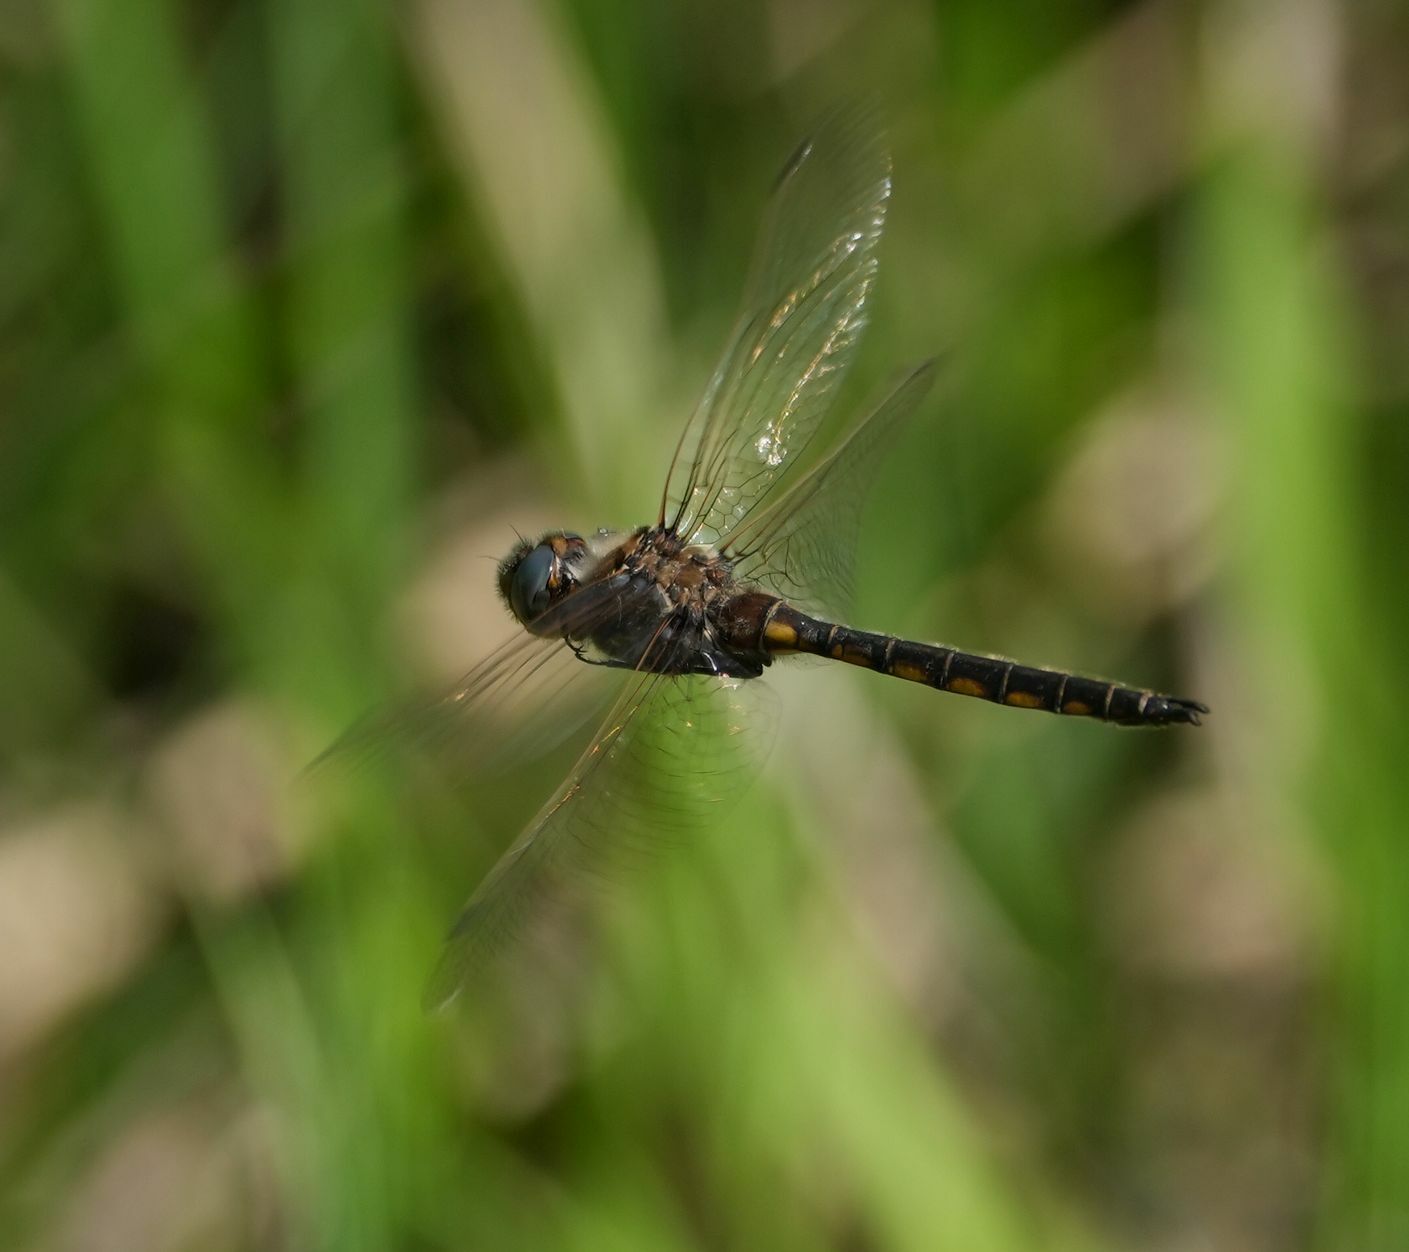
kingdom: Animalia
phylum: Arthropoda
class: Insecta
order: Odonata
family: Corduliidae
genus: Epitheca
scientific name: Epitheca canis
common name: Beaverpond baskettail
